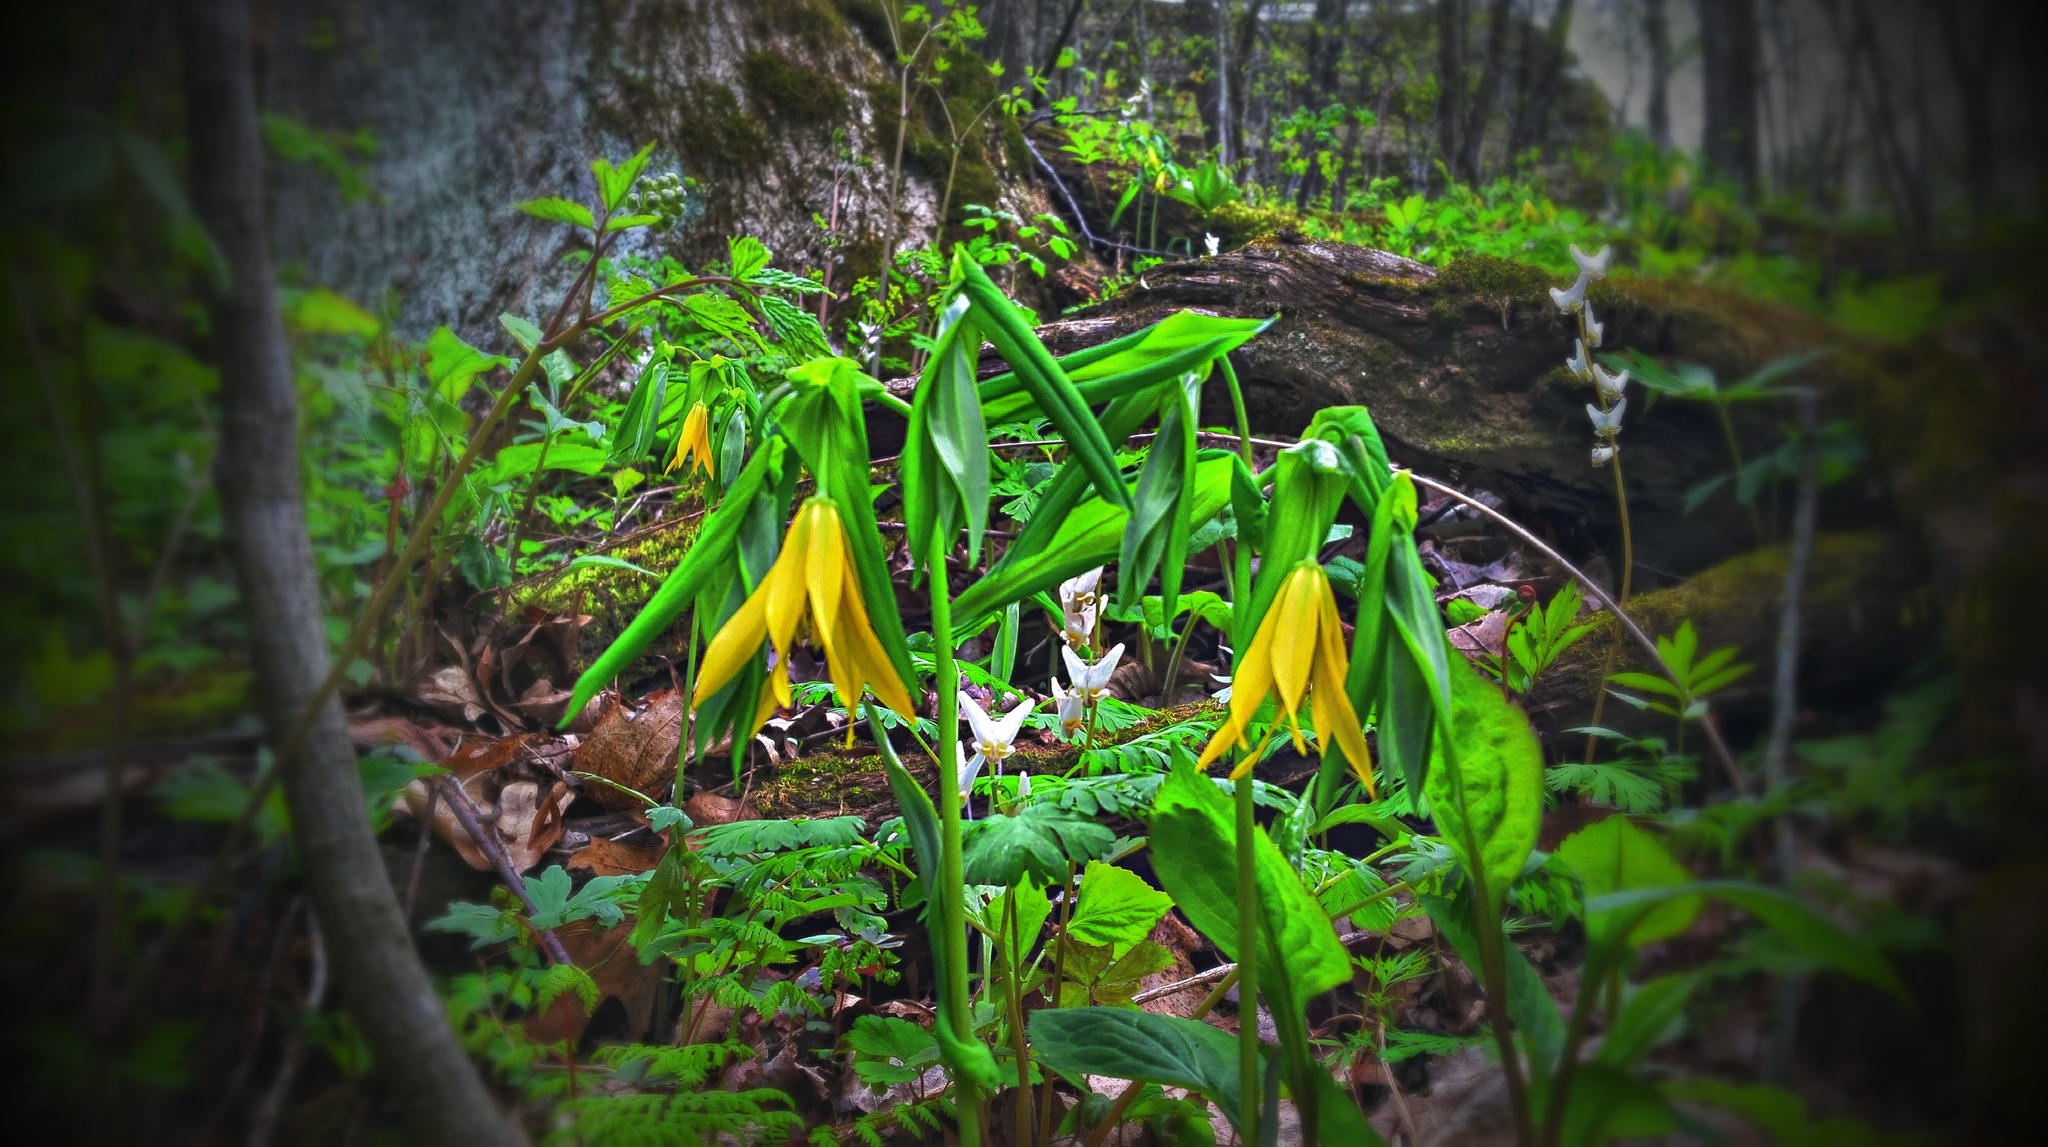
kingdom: Plantae
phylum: Tracheophyta
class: Liliopsida
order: Liliales
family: Colchicaceae
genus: Uvularia
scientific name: Uvularia grandiflora
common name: Bellwort
